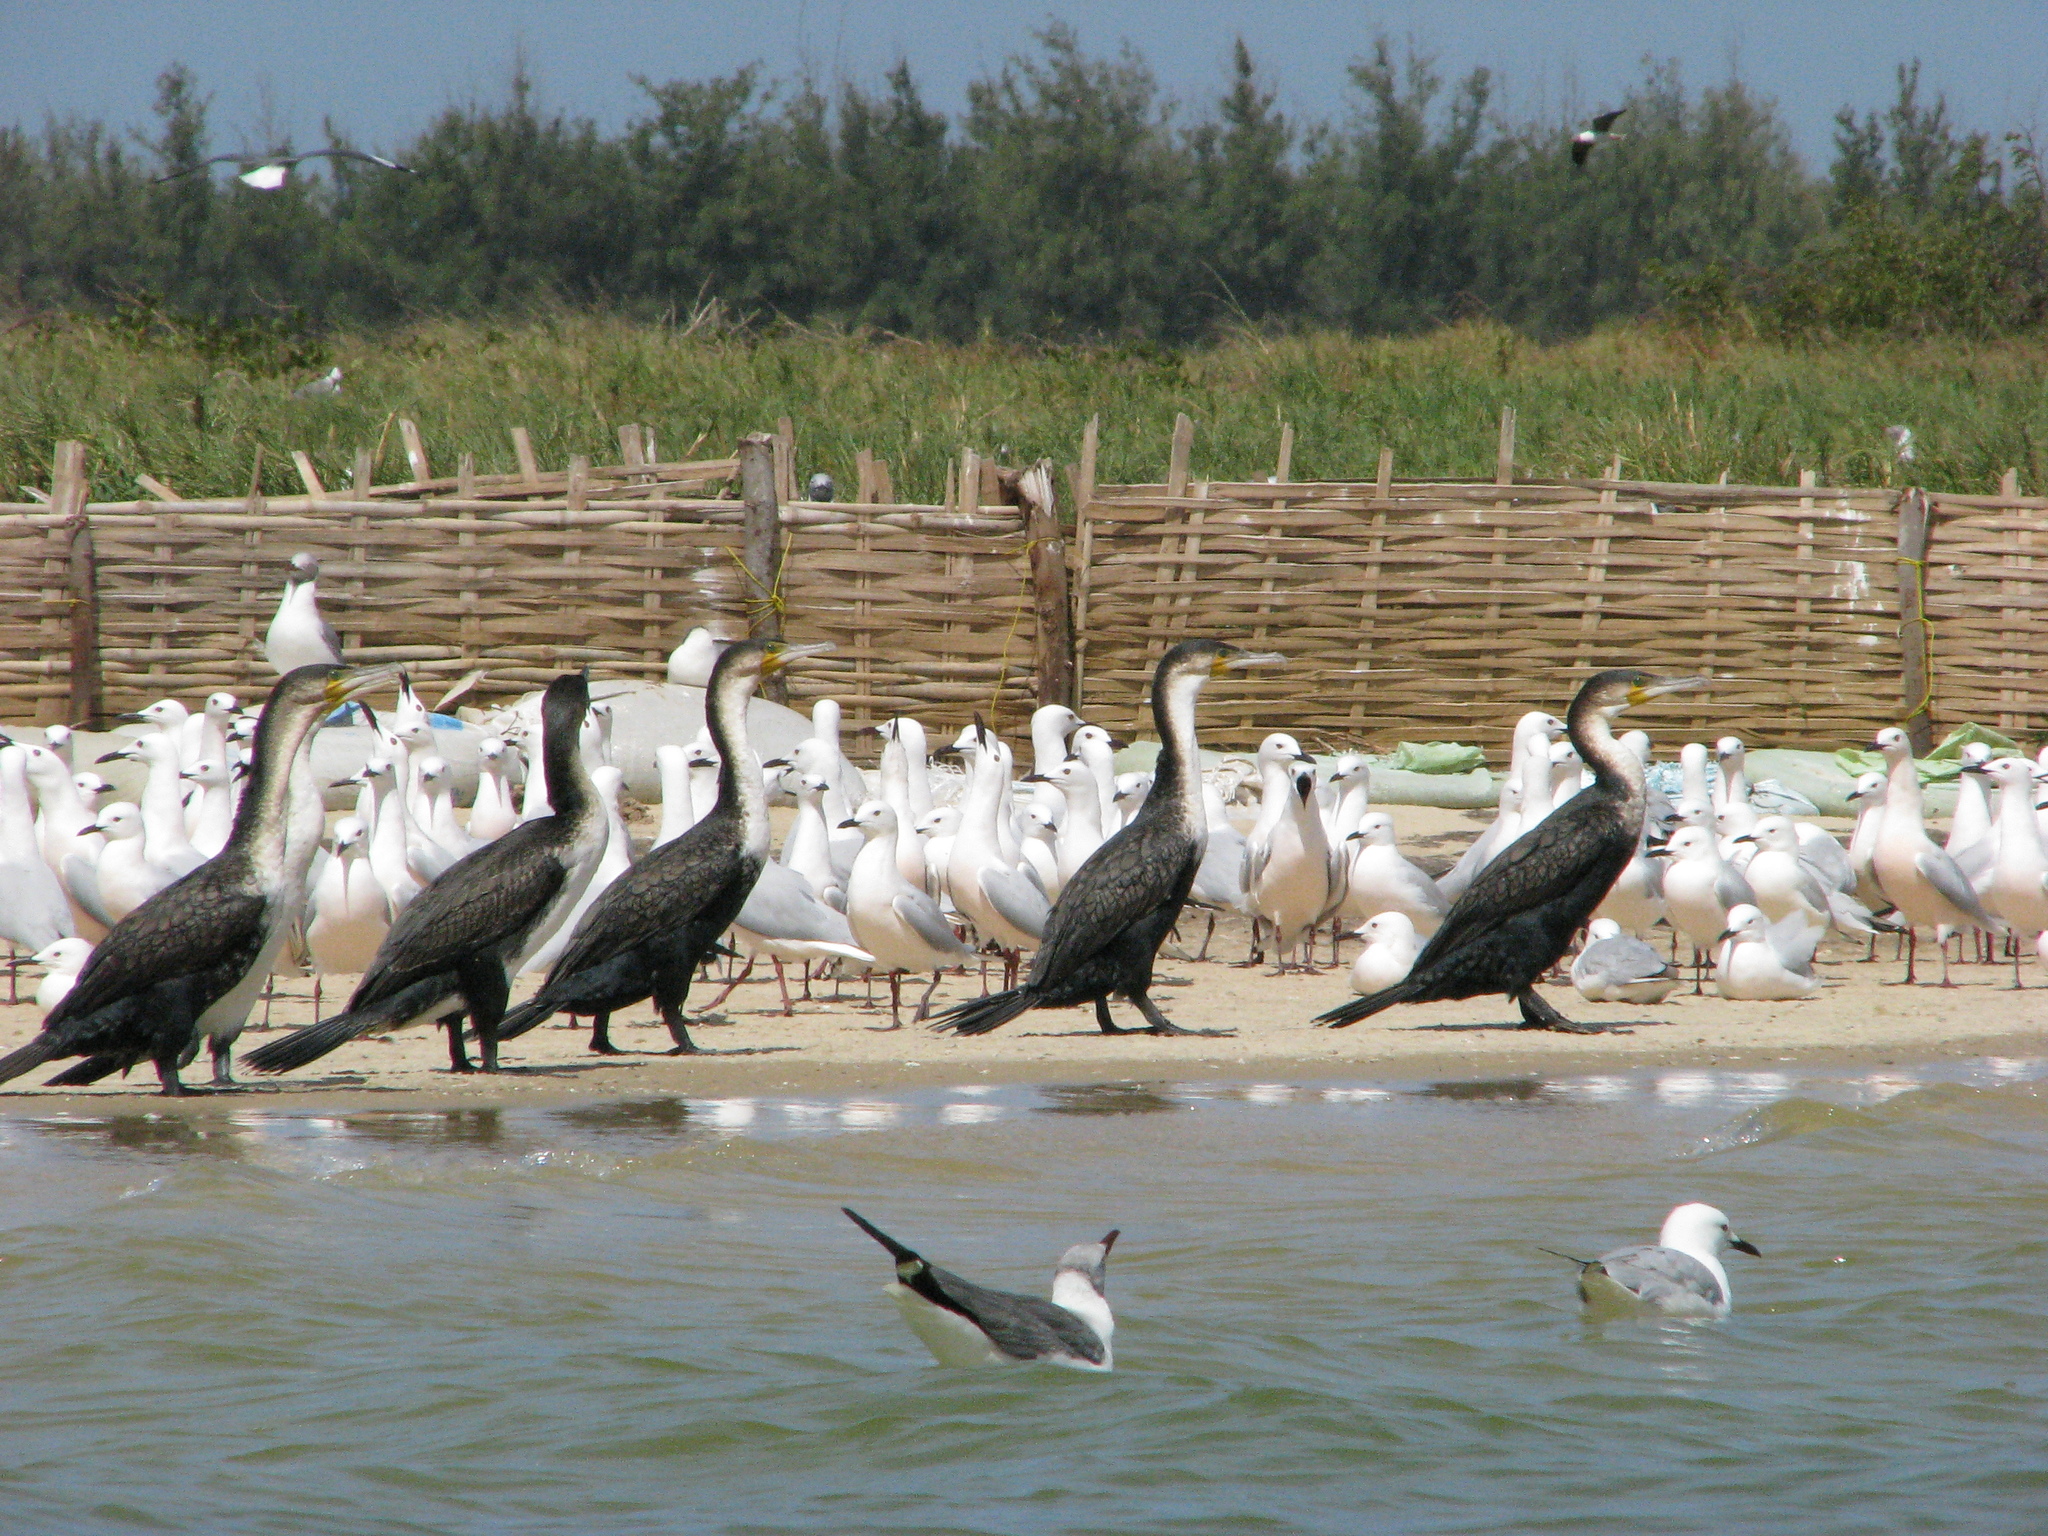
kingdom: Animalia
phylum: Chordata
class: Aves
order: Suliformes
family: Phalacrocoracidae
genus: Phalacrocorax
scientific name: Phalacrocorax carbo
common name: Great cormorant
